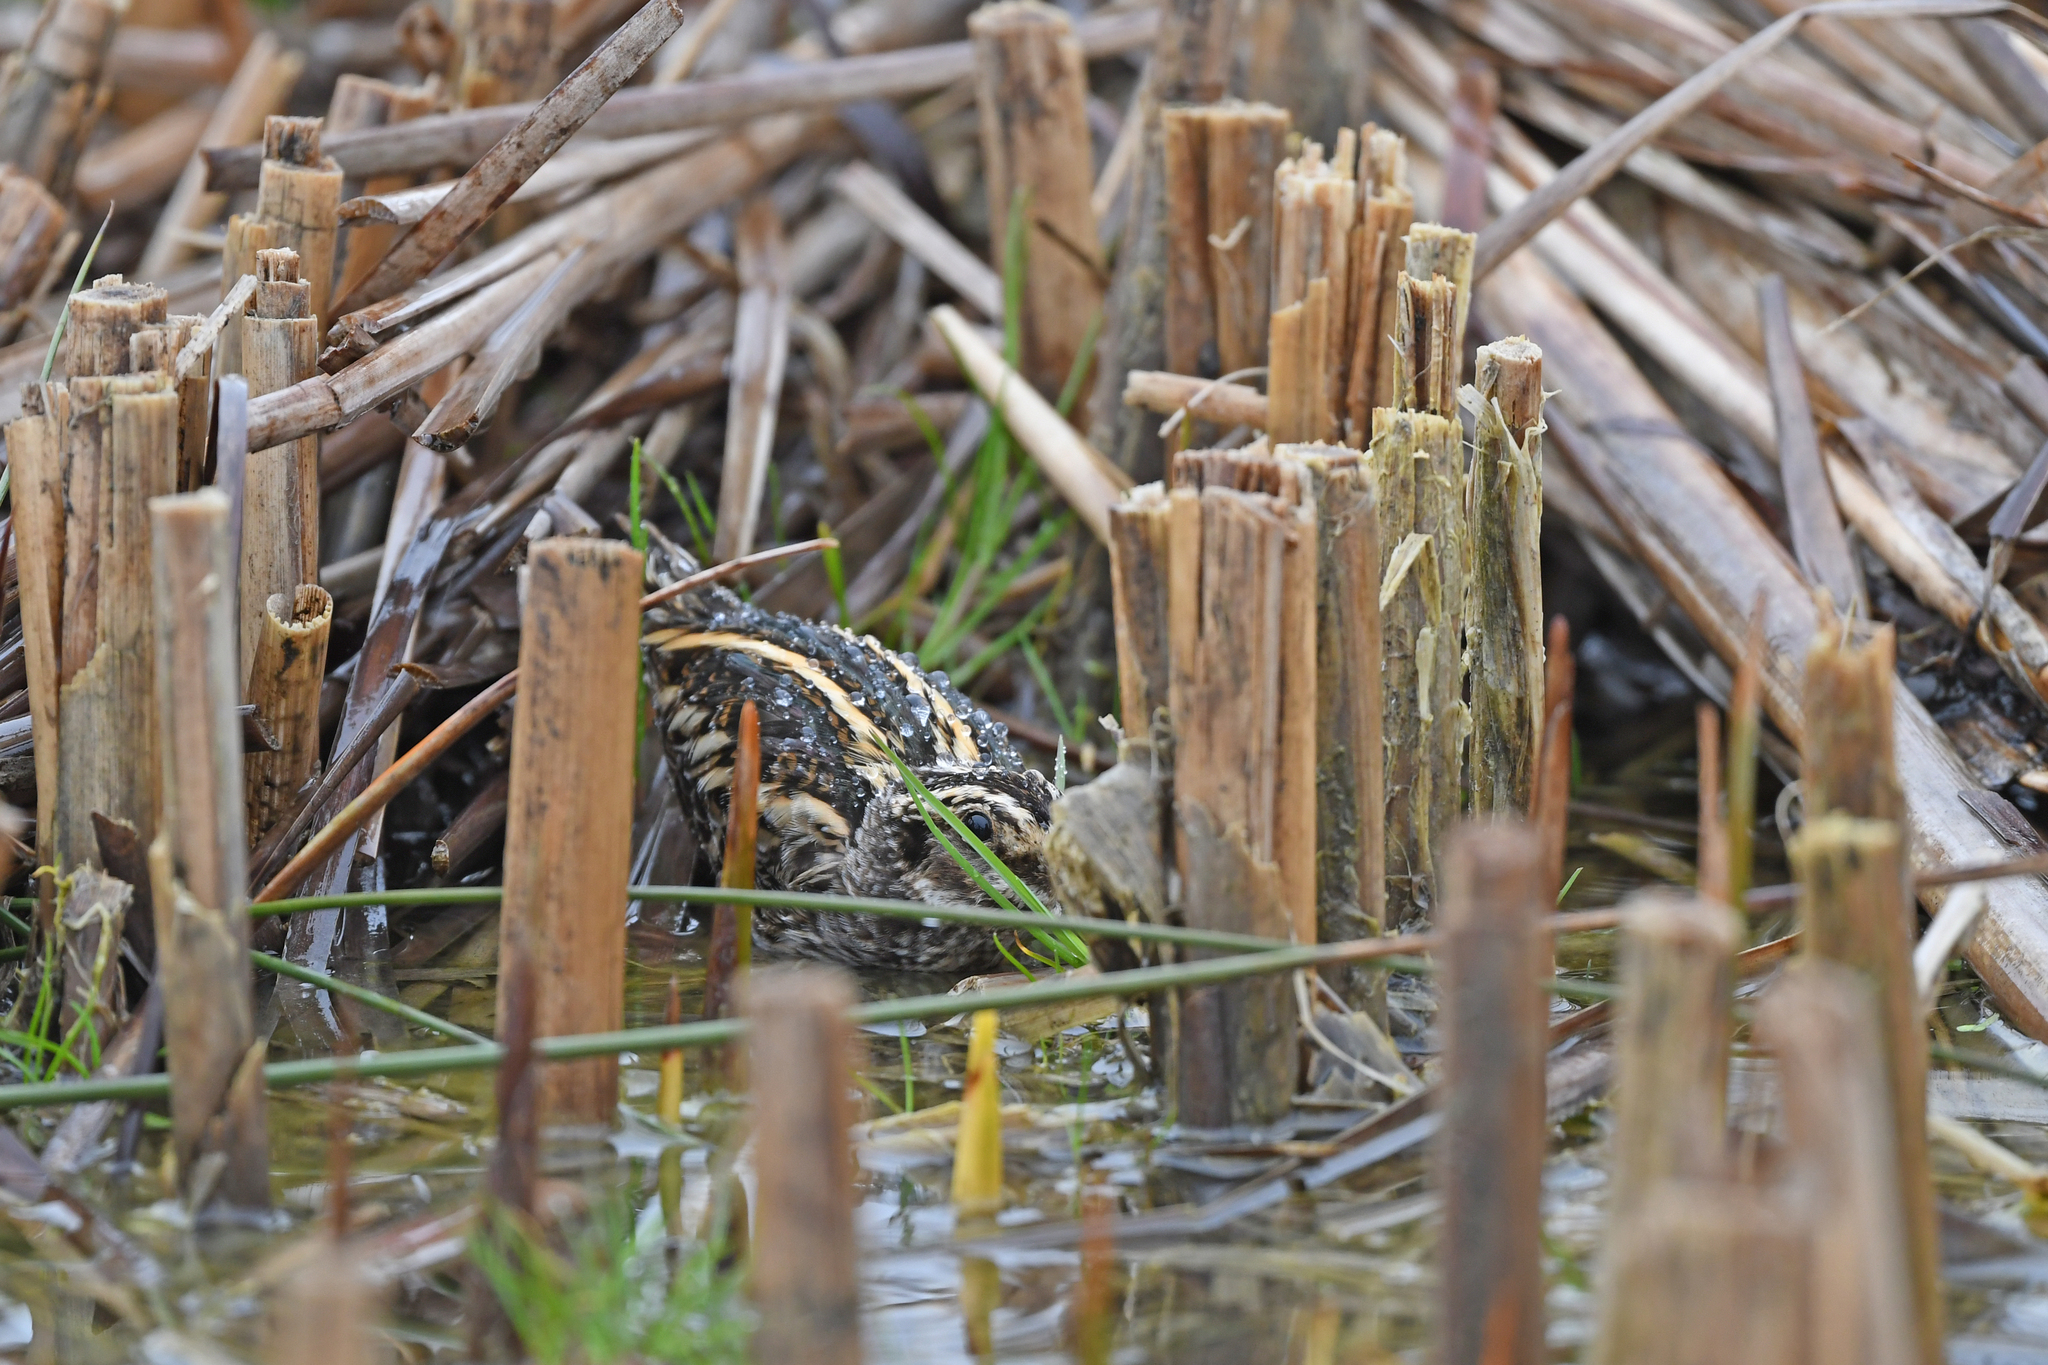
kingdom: Animalia
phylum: Chordata
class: Aves
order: Charadriiformes
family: Scolopacidae
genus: Lymnocryptes
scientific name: Lymnocryptes minimus
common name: Jack snipe
